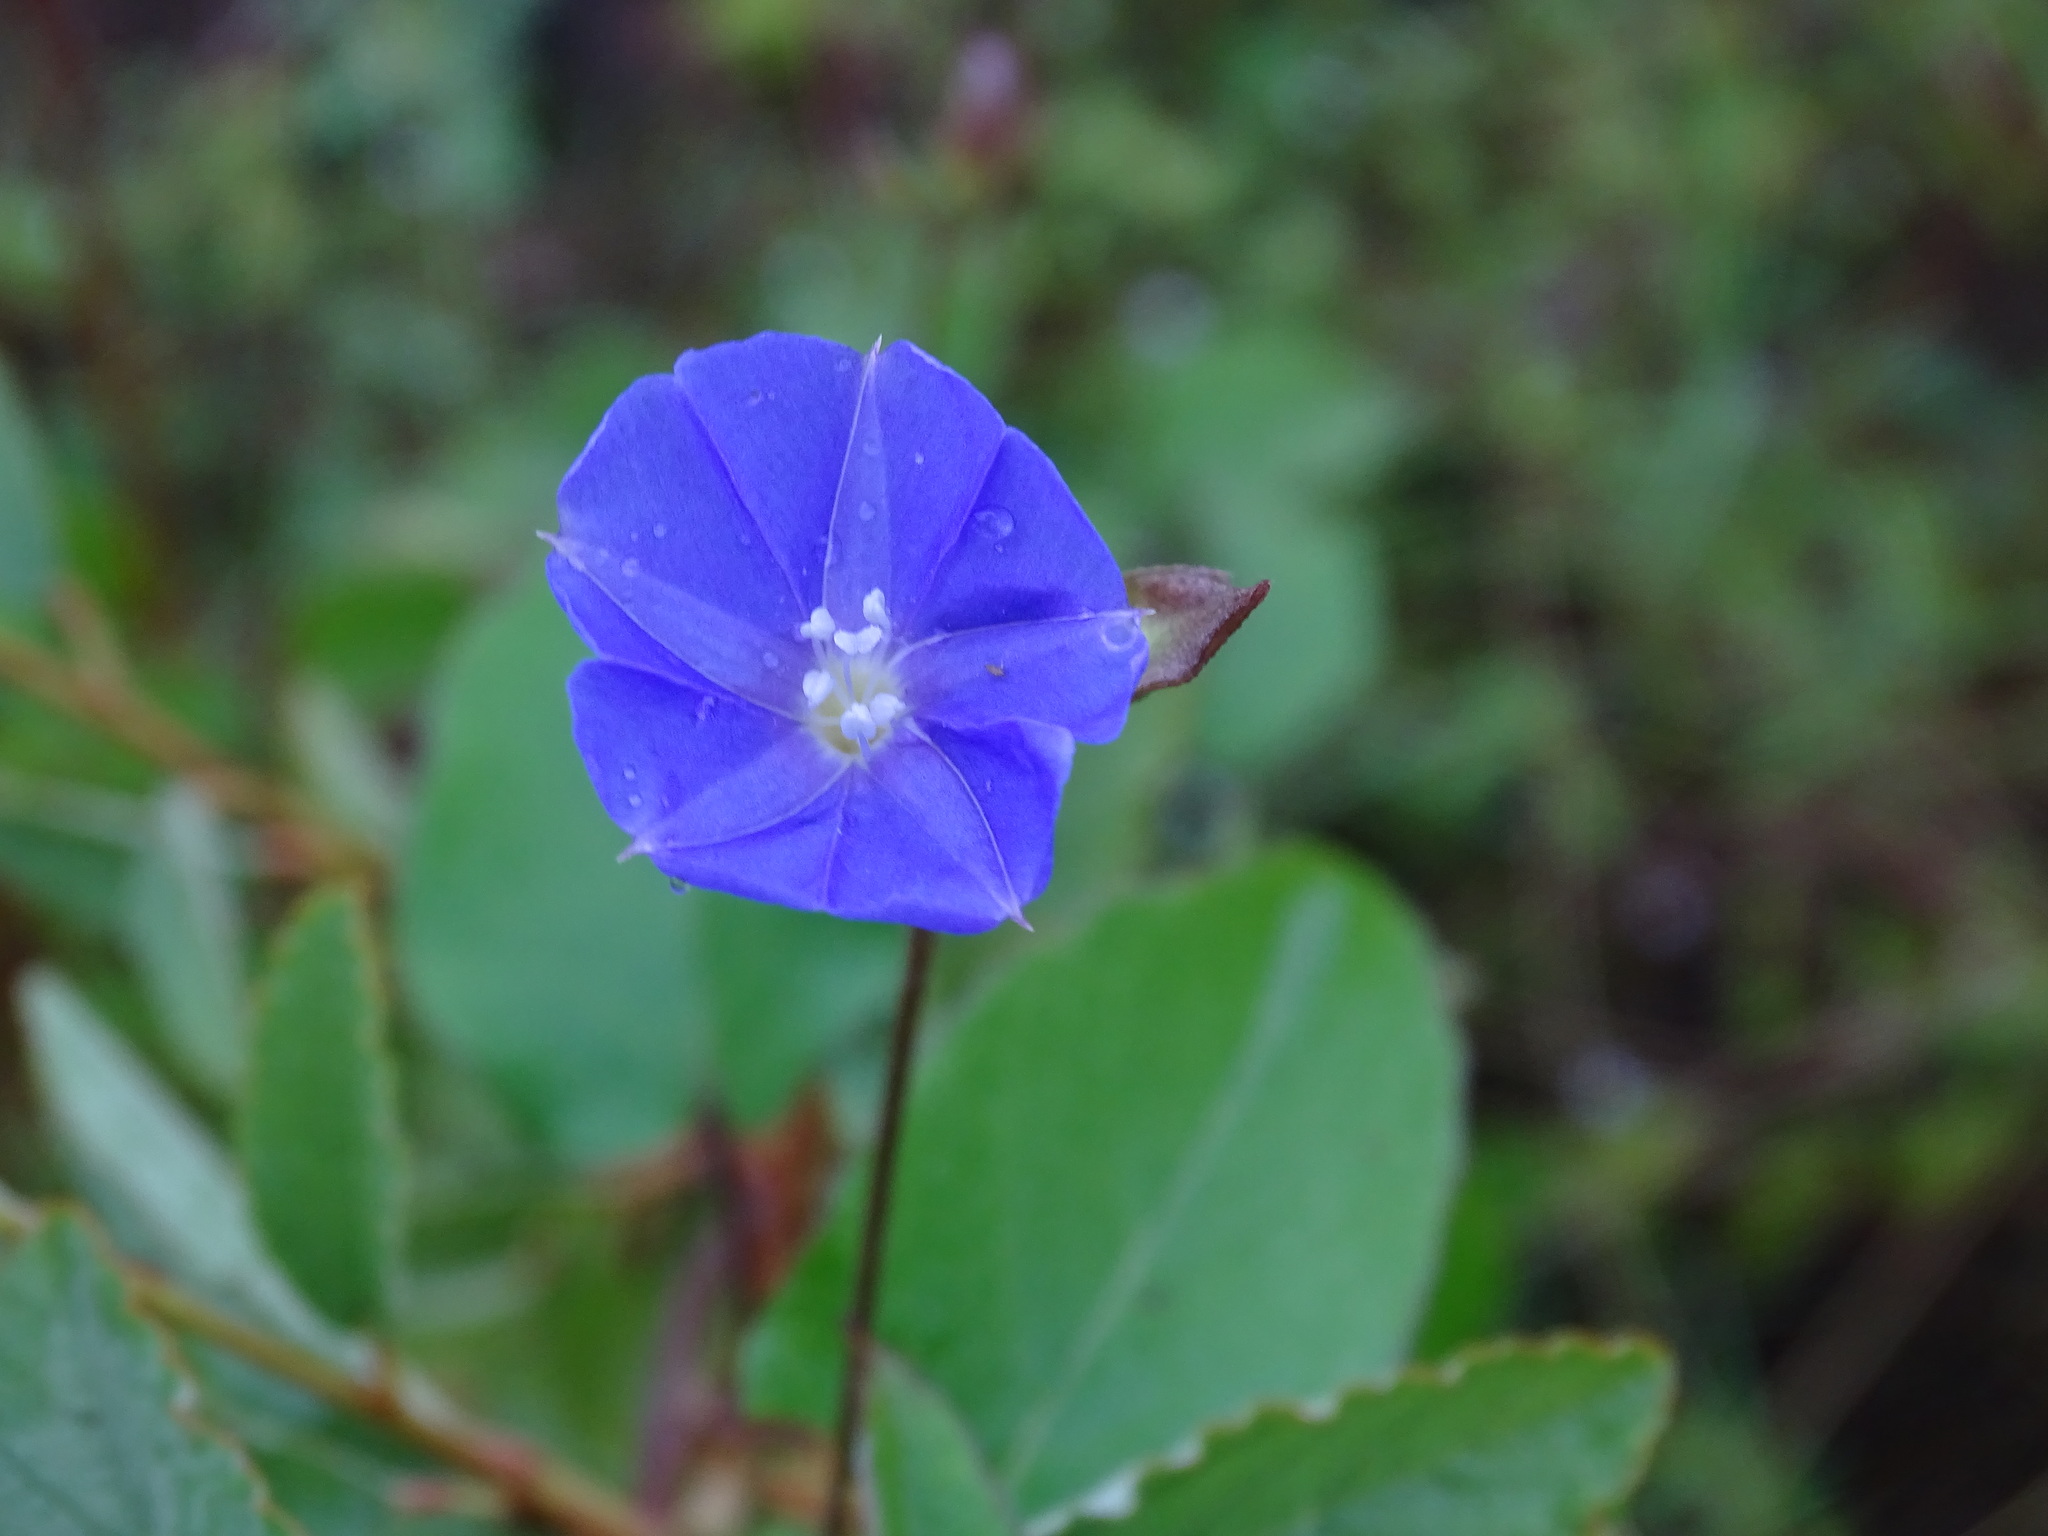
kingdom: Plantae
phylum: Tracheophyta
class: Magnoliopsida
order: Solanales
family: Convolvulaceae
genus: Jacquemontia
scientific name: Jacquemontia pentanthos
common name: Skyblue clustervine
